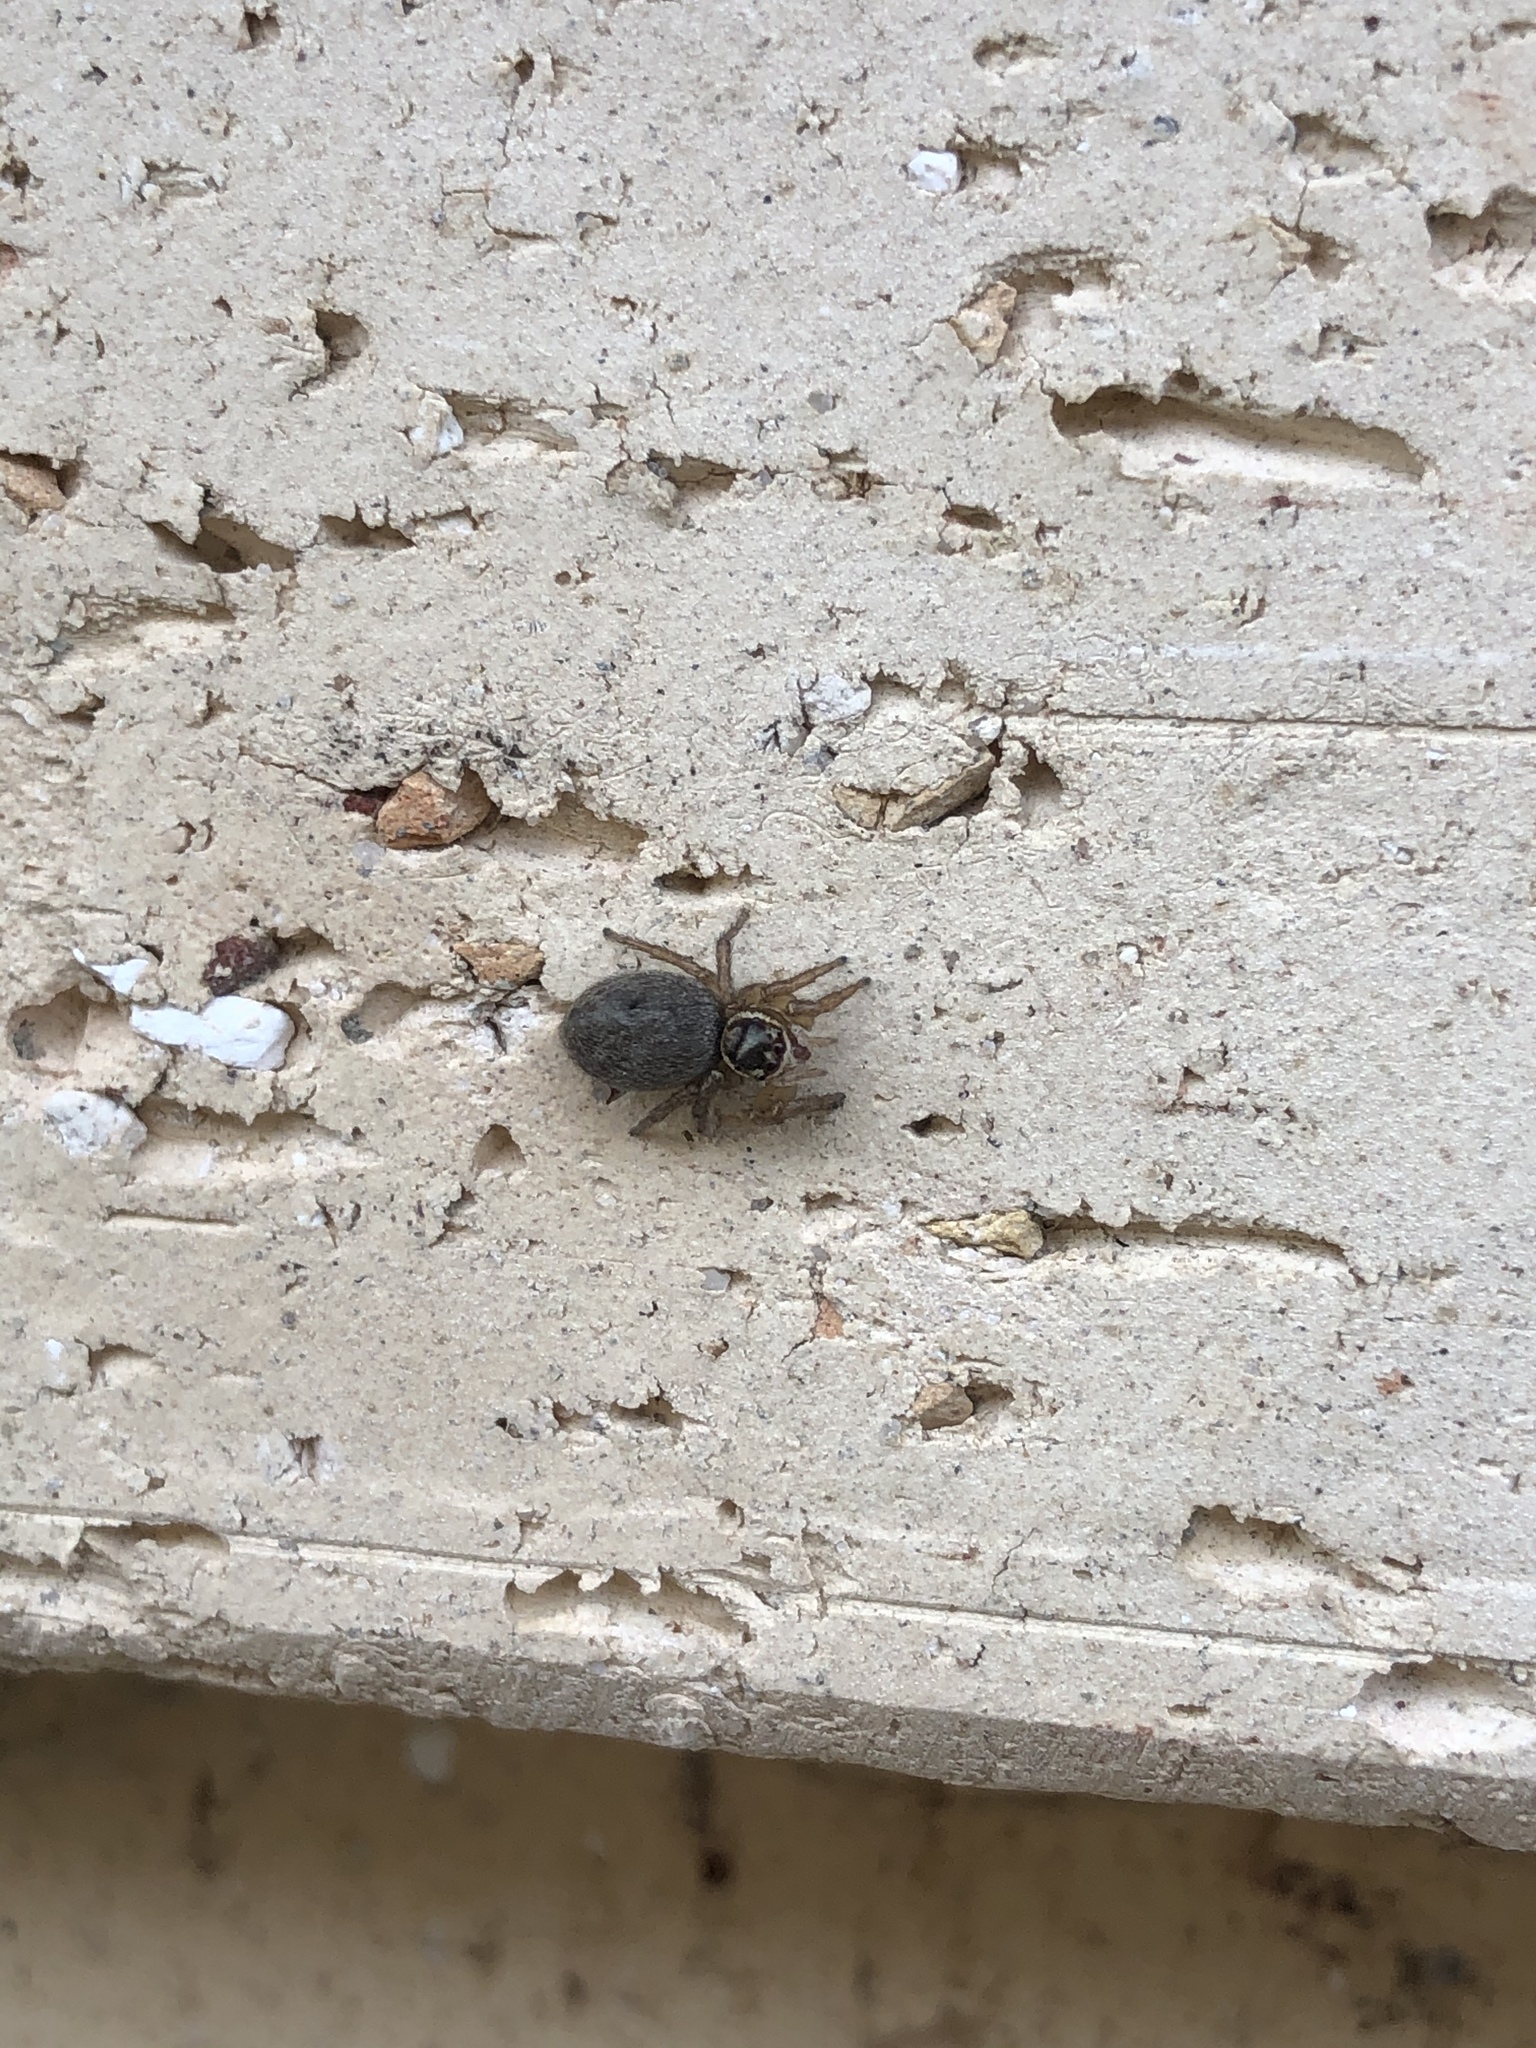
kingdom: Animalia
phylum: Arthropoda
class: Arachnida
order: Araneae
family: Salticidae
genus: Maratus
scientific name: Maratus griseus
